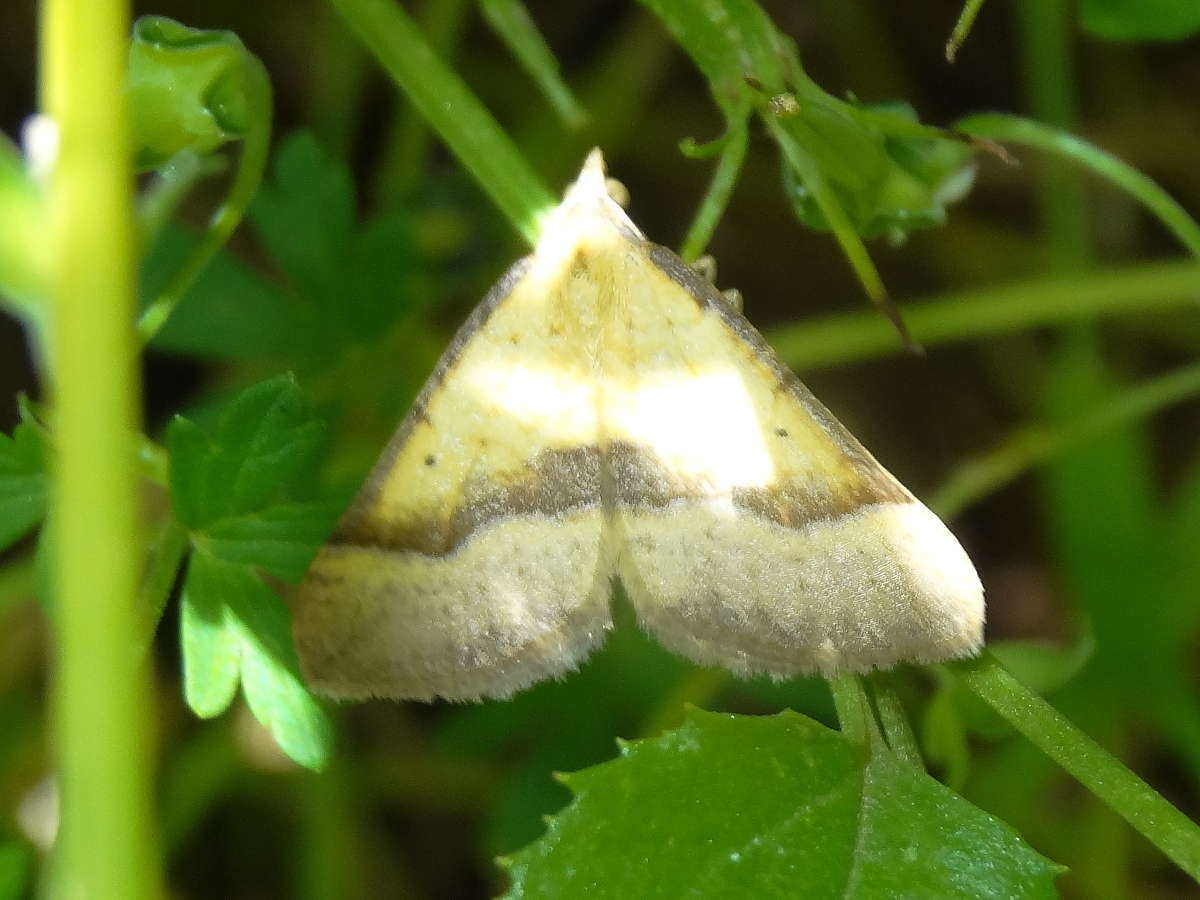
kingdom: Animalia
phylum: Arthropoda
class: Insecta
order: Lepidoptera
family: Geometridae
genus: Anachloris
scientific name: Anachloris subochraria
